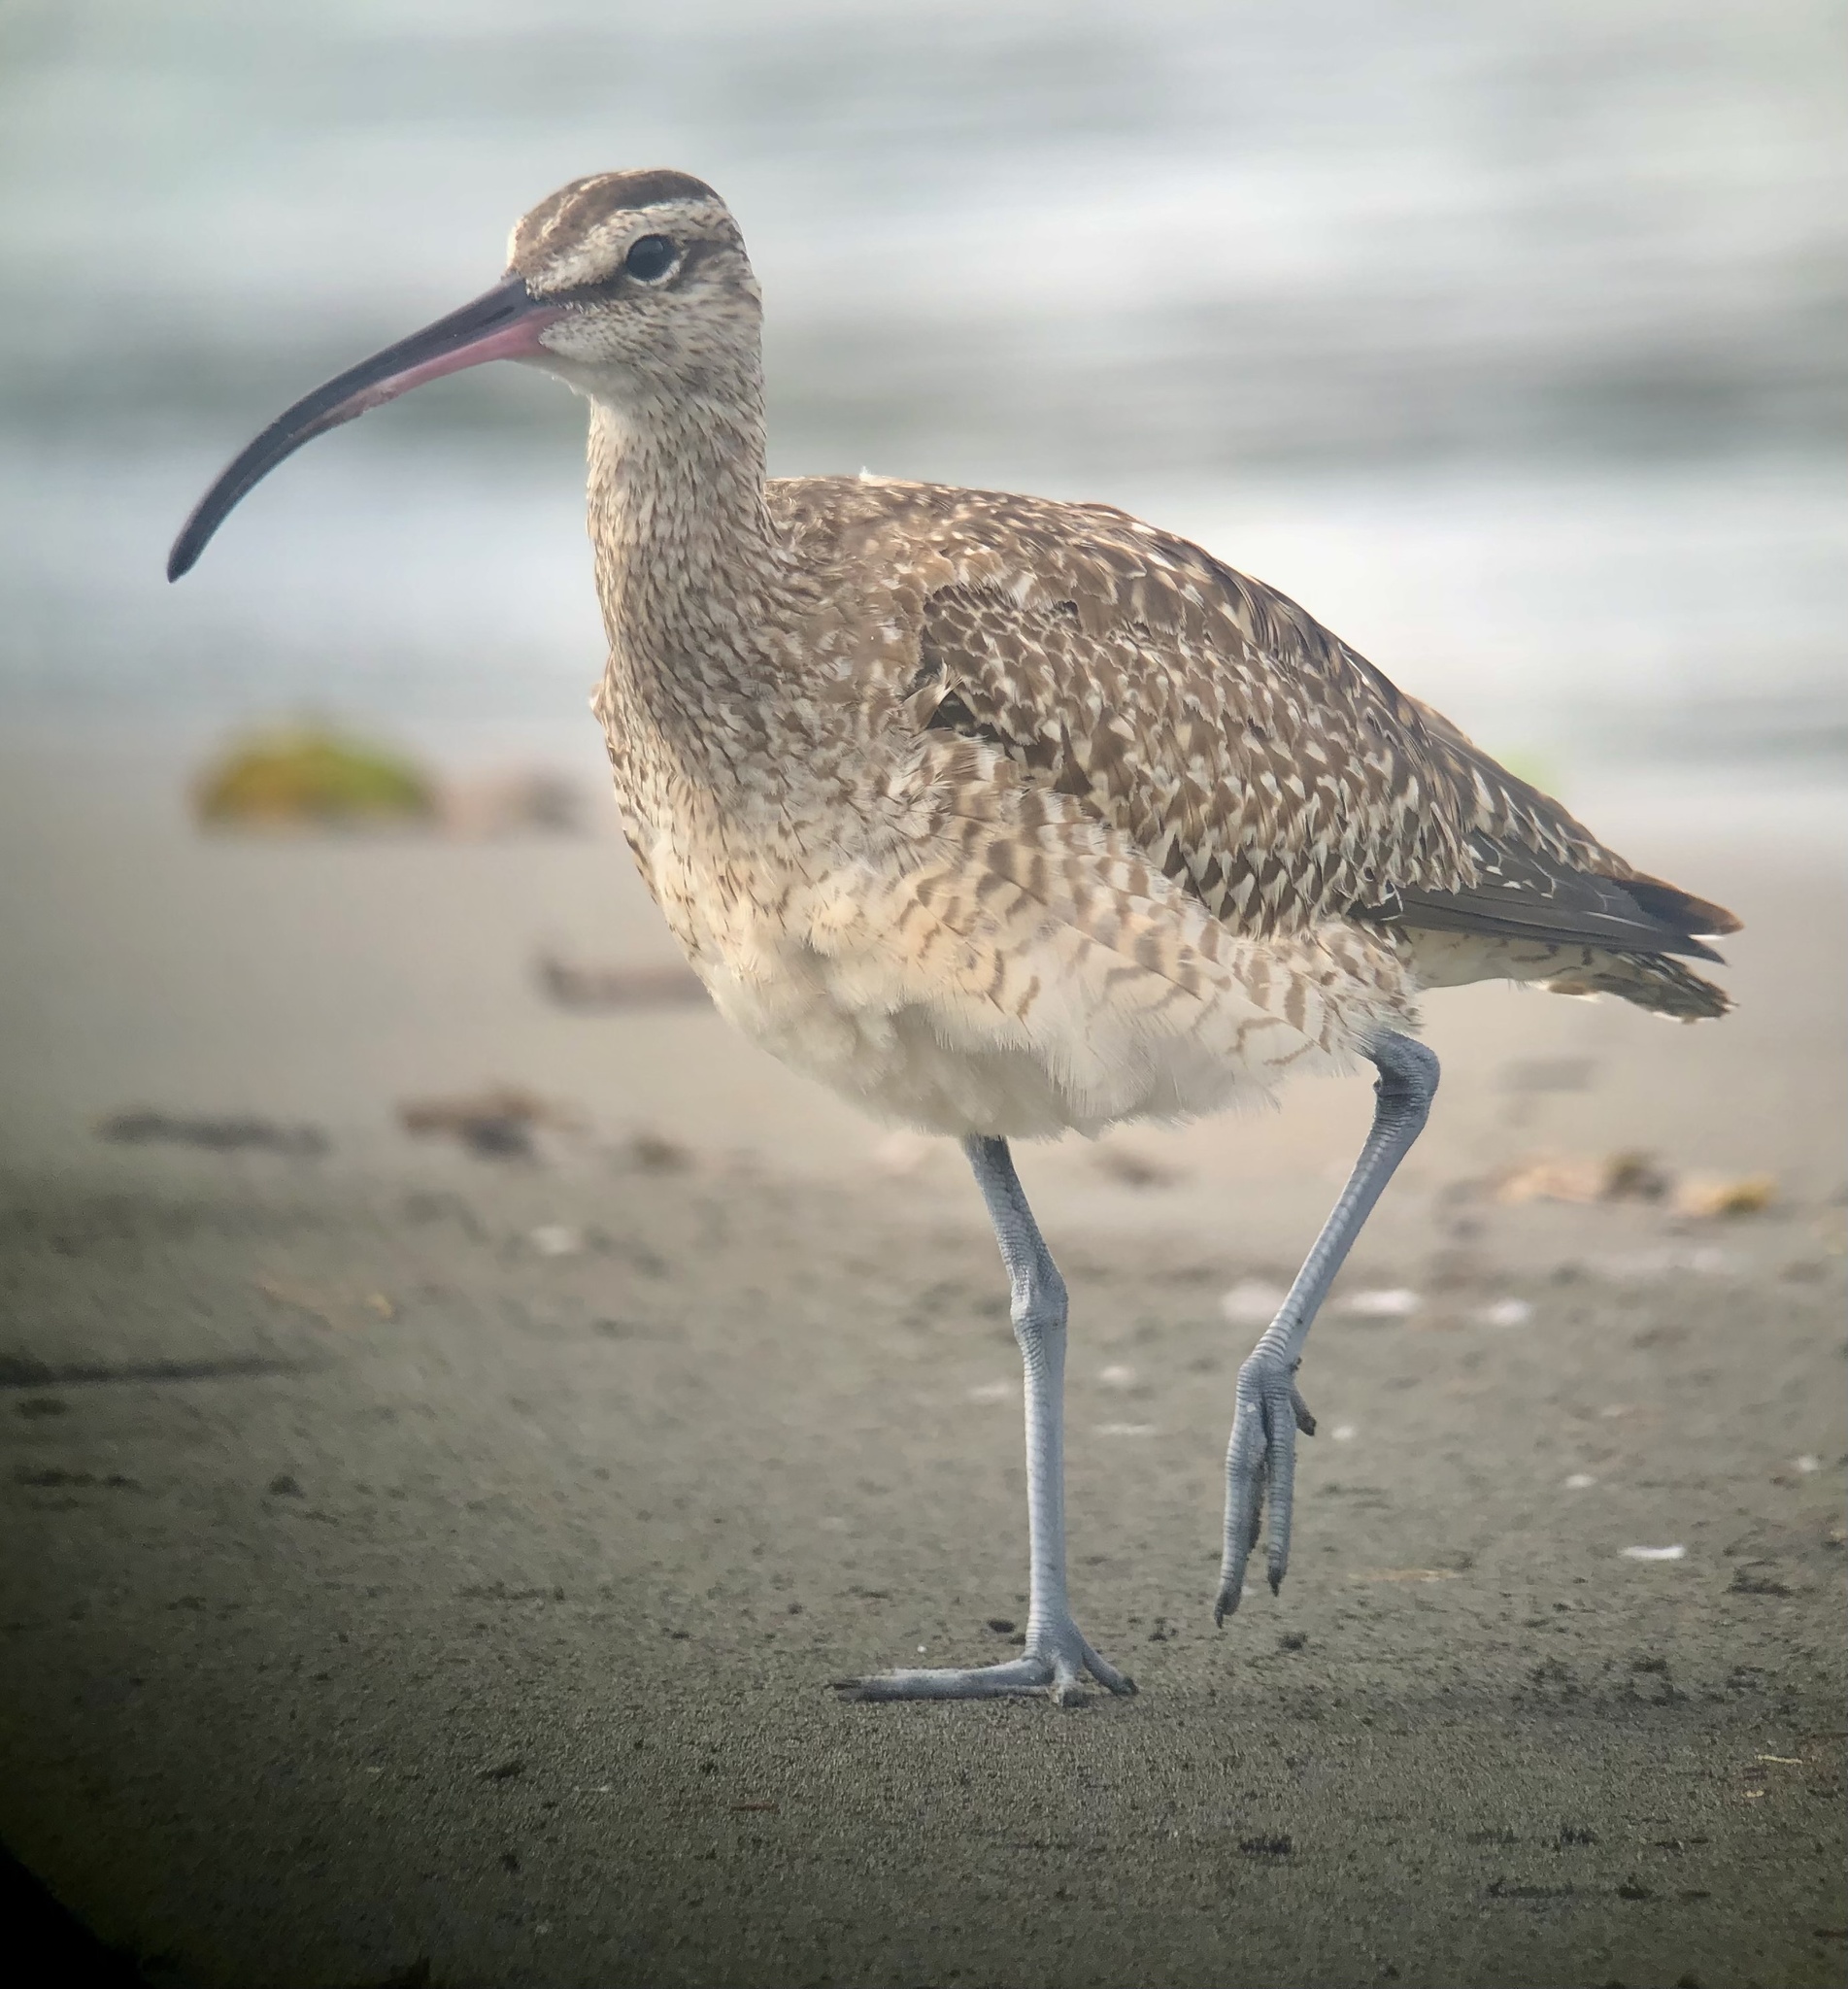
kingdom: Animalia
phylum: Chordata
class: Aves
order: Charadriiformes
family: Scolopacidae
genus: Numenius
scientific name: Numenius phaeopus
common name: Whimbrel
